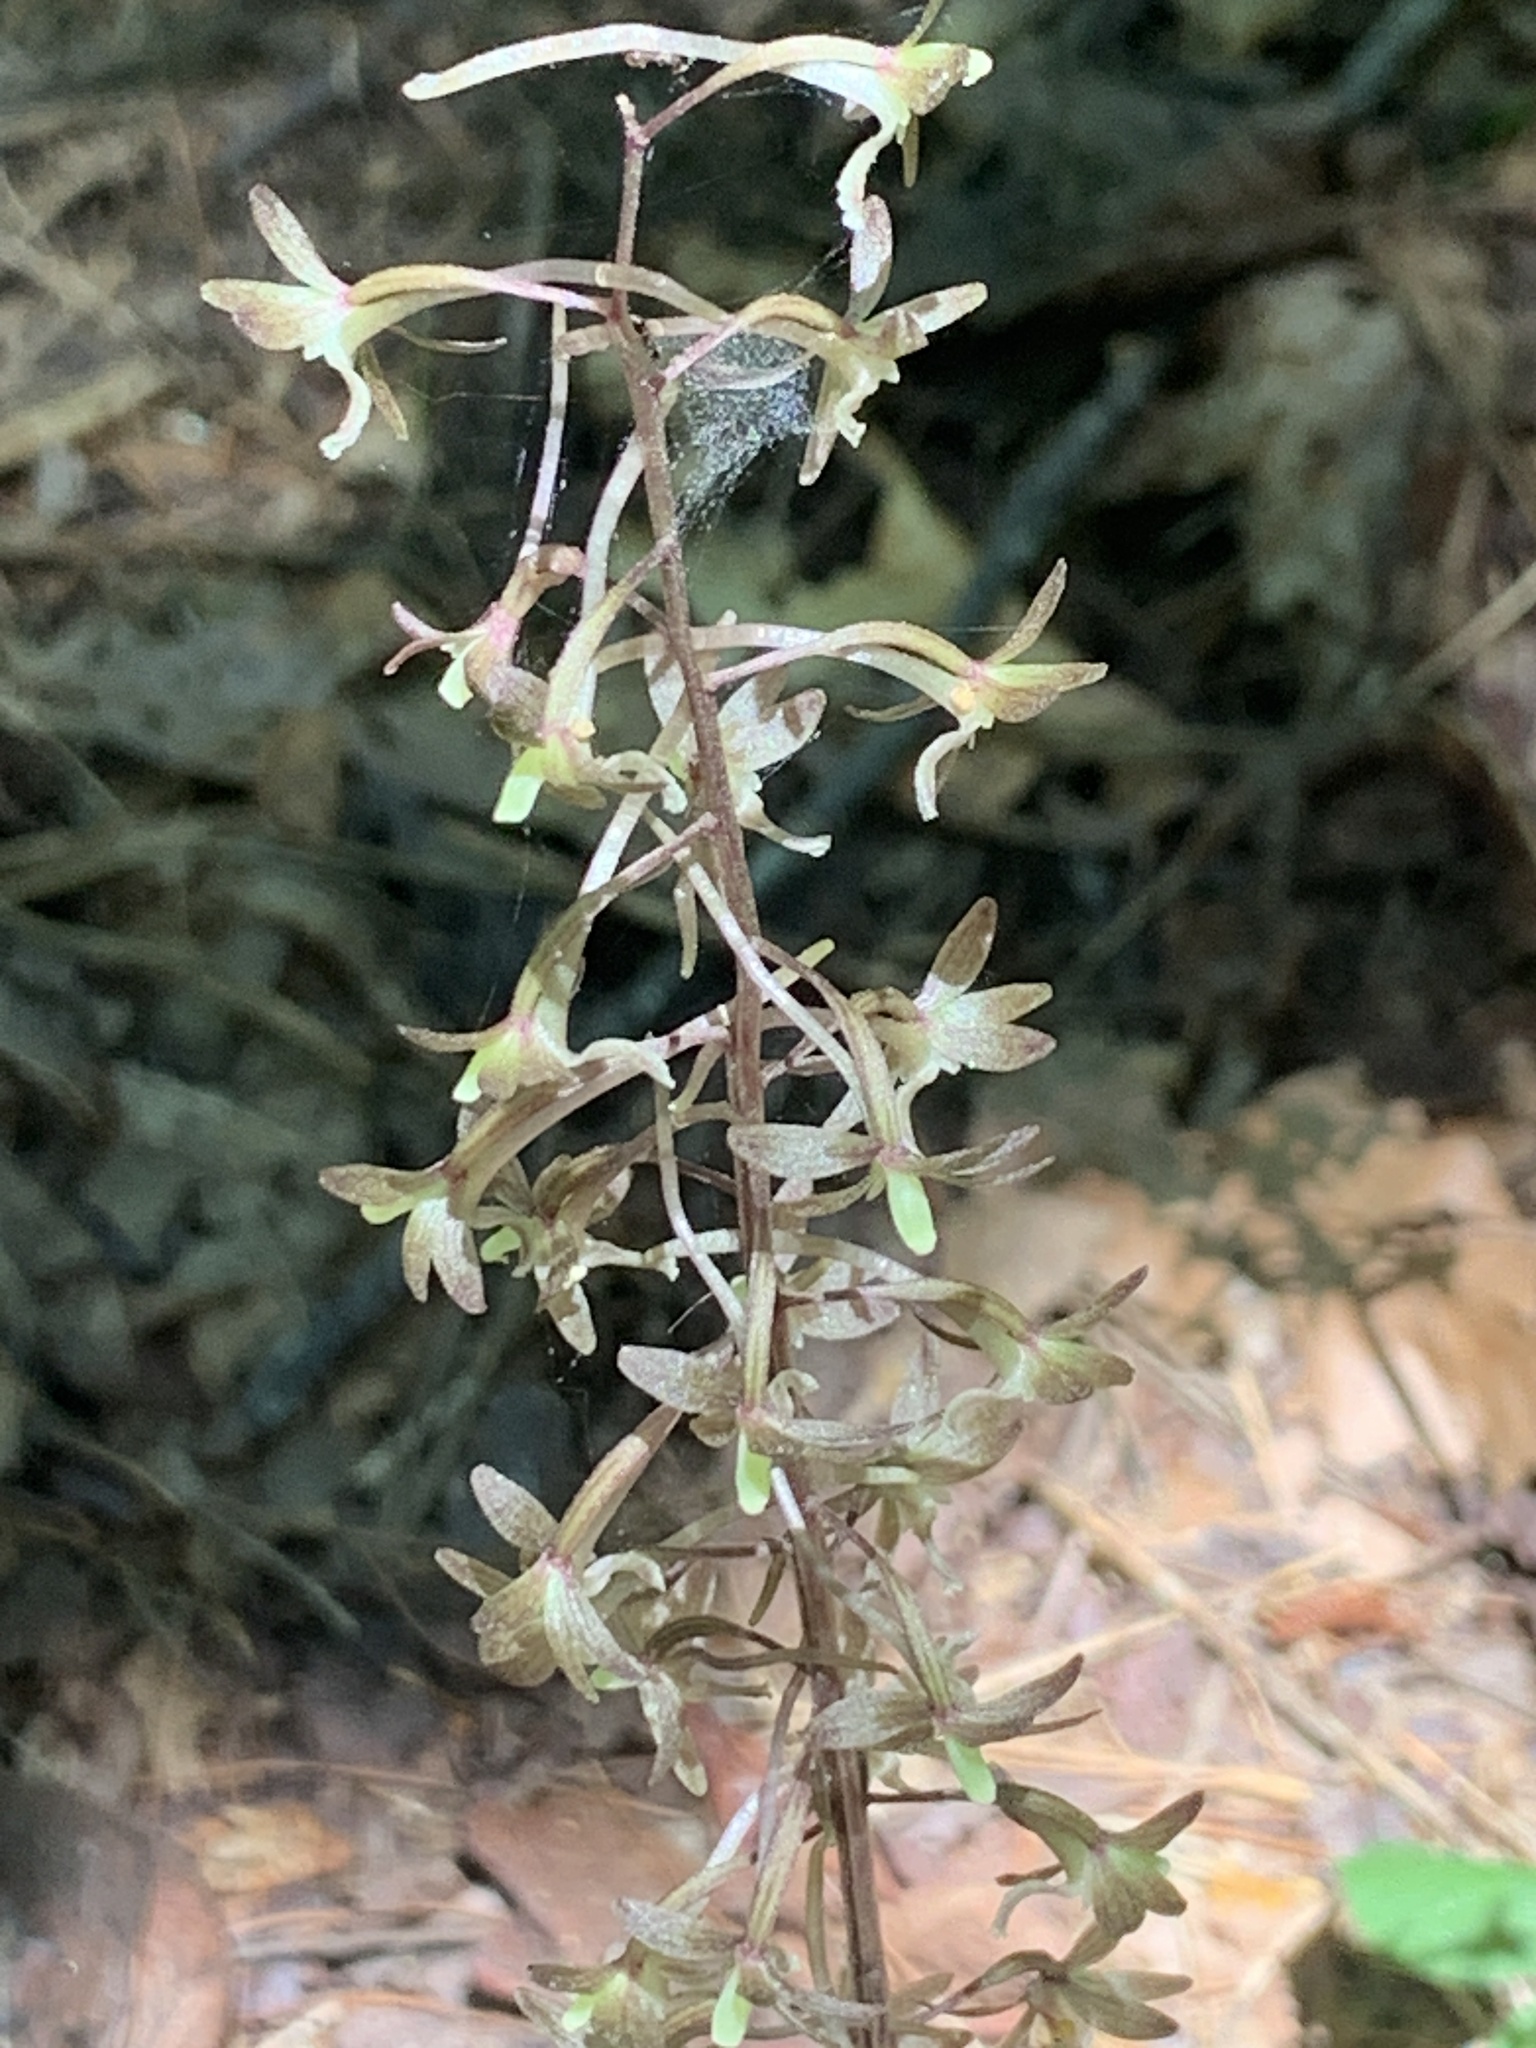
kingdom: Plantae
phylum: Tracheophyta
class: Liliopsida
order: Asparagales
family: Orchidaceae
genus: Tipularia
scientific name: Tipularia discolor
